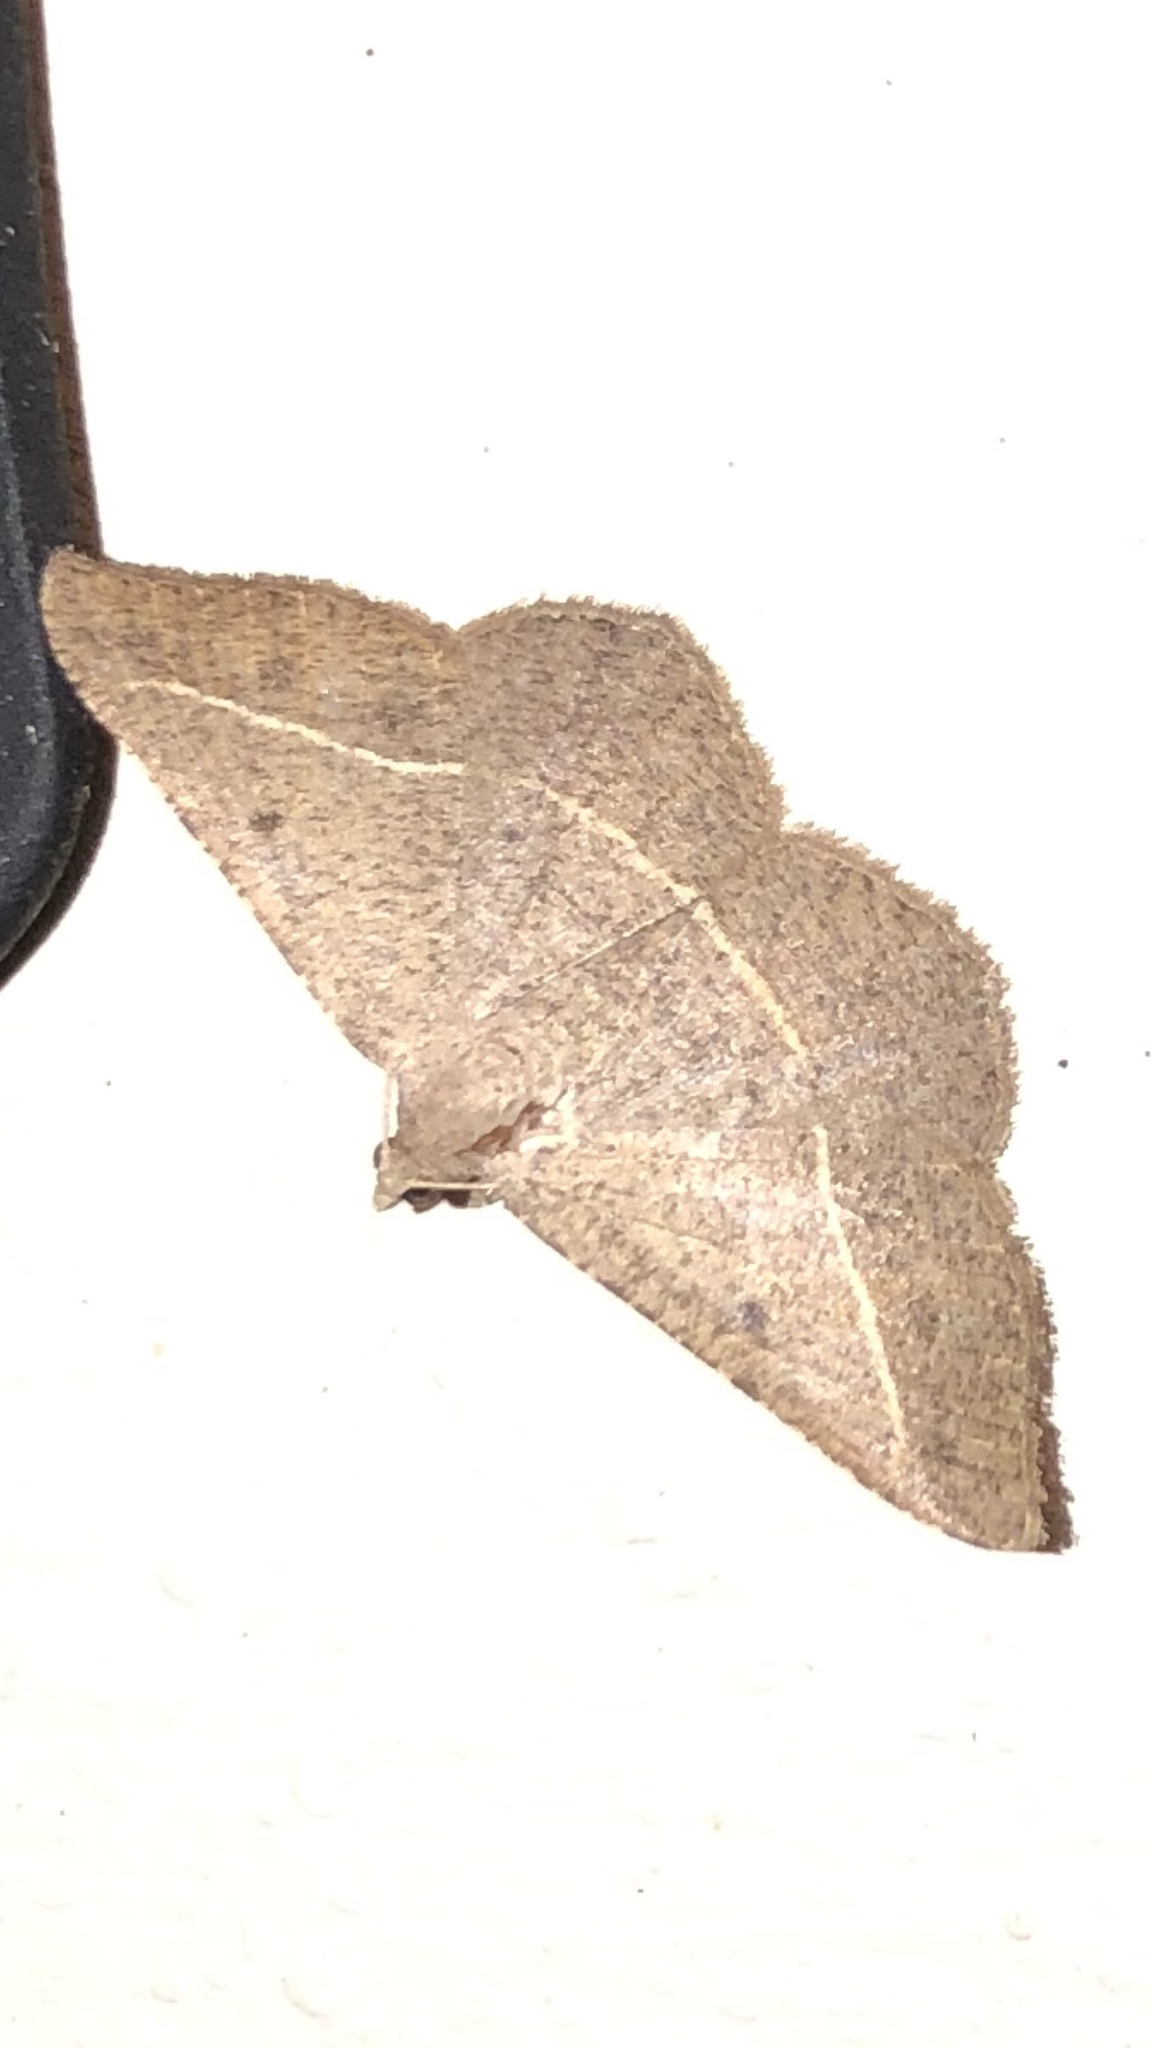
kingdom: Animalia
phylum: Arthropoda
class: Insecta
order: Lepidoptera
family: Geometridae
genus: Digrammia
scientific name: Digrammia irrorata
